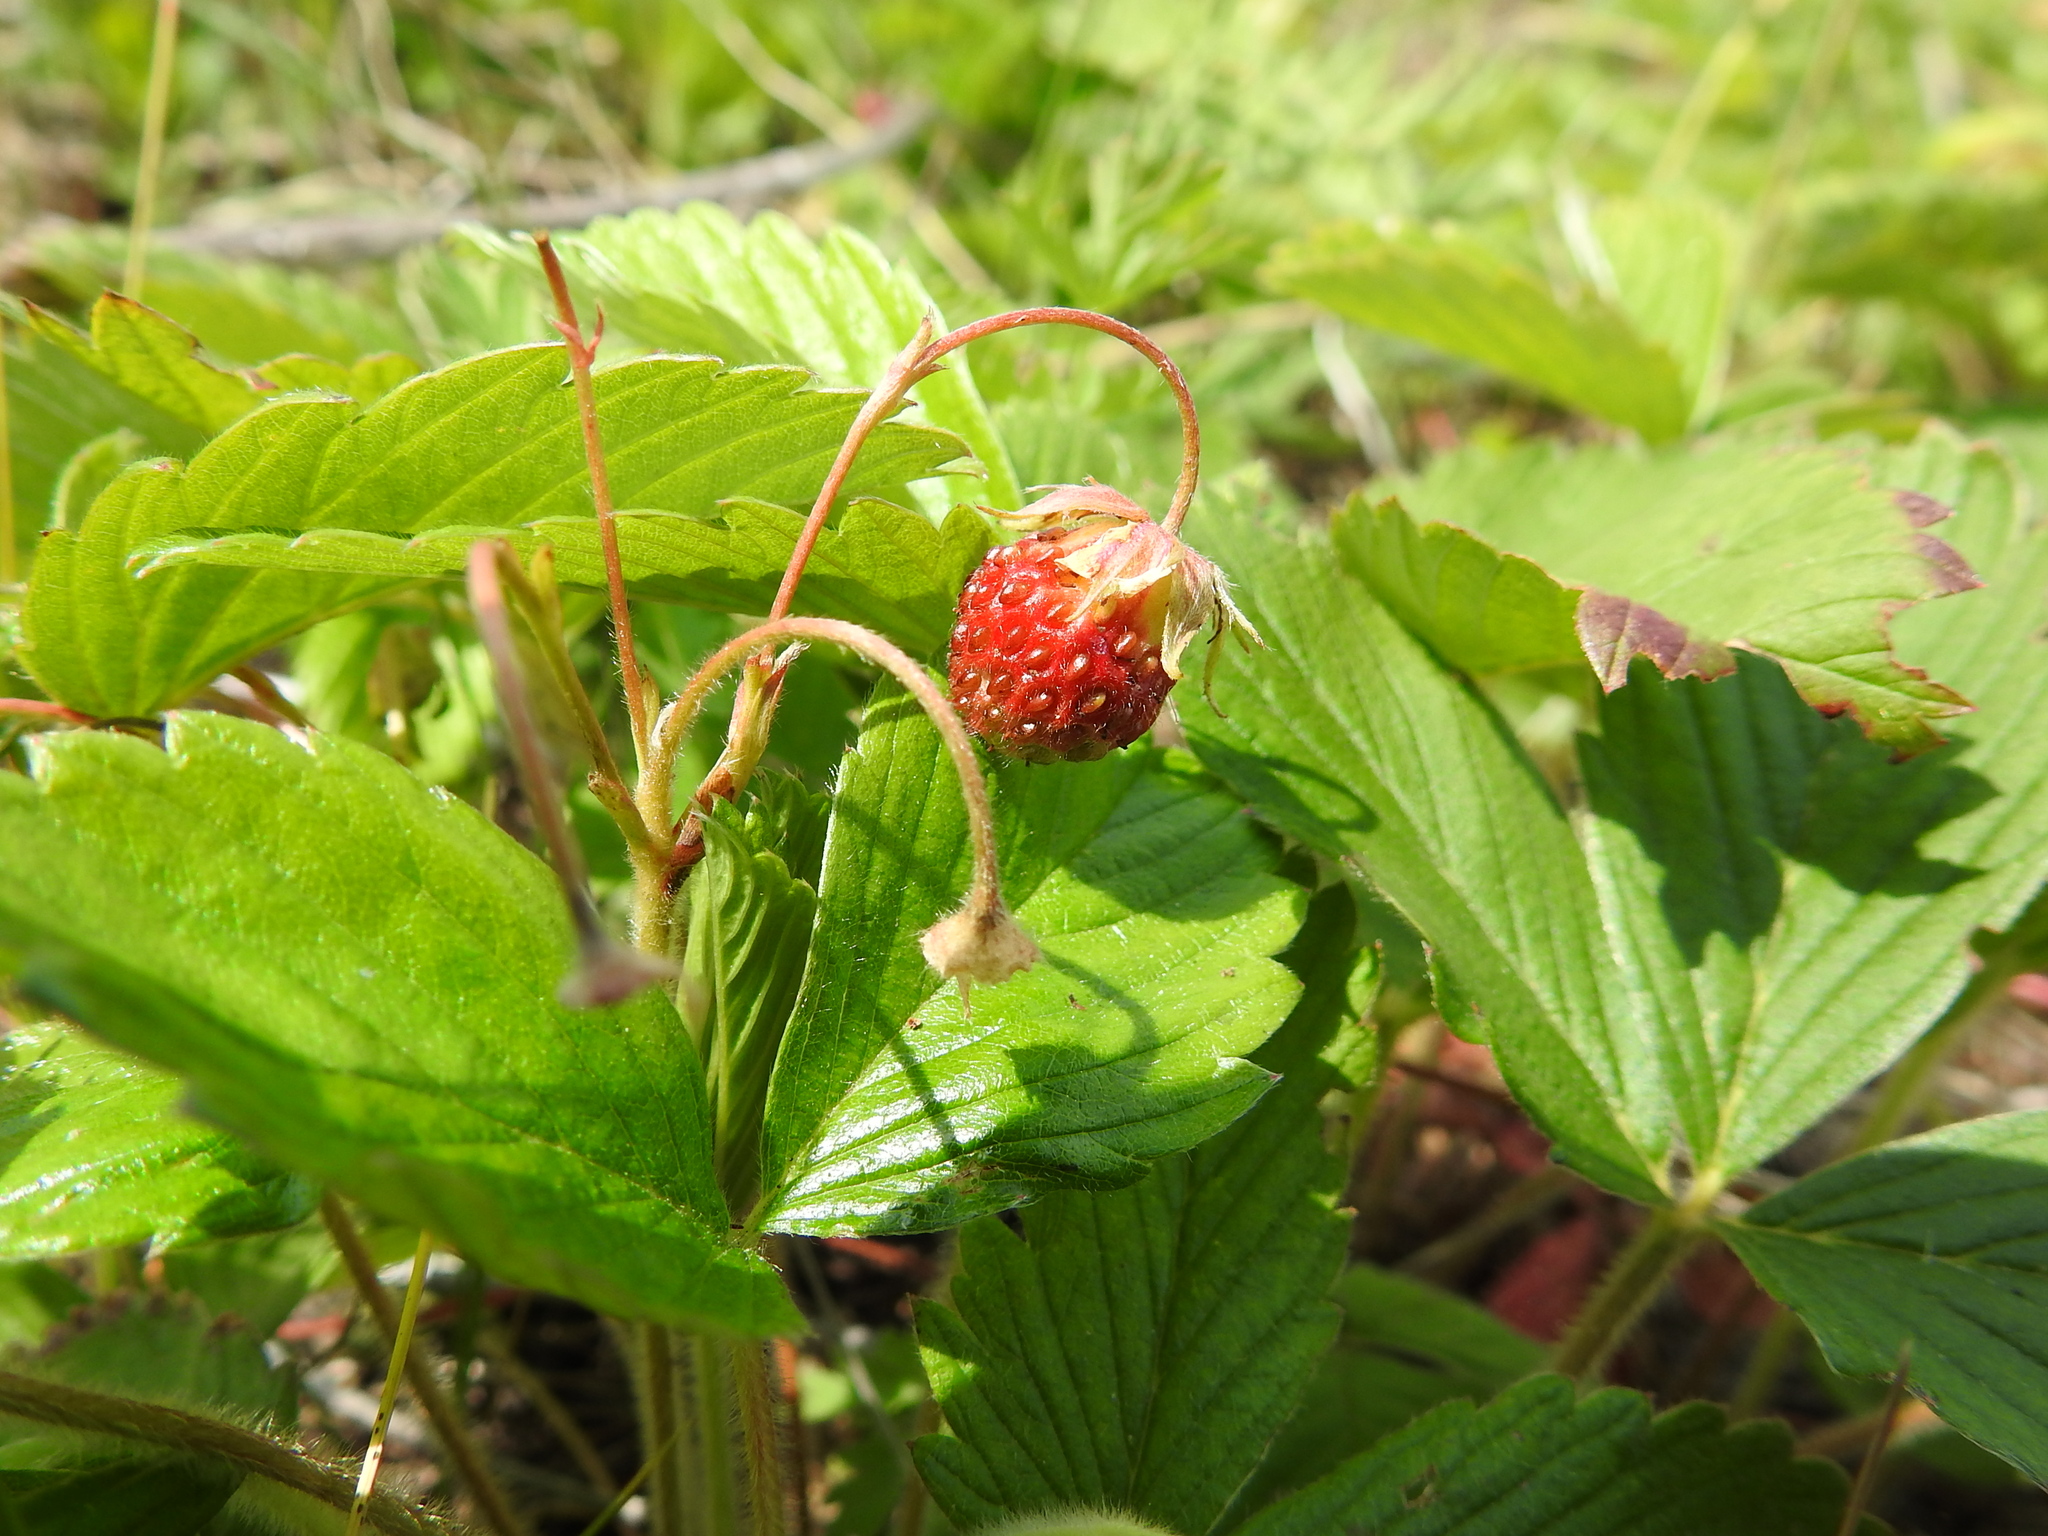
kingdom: Plantae
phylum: Tracheophyta
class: Magnoliopsida
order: Rosales
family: Rosaceae
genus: Fragaria
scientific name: Fragaria viridis
